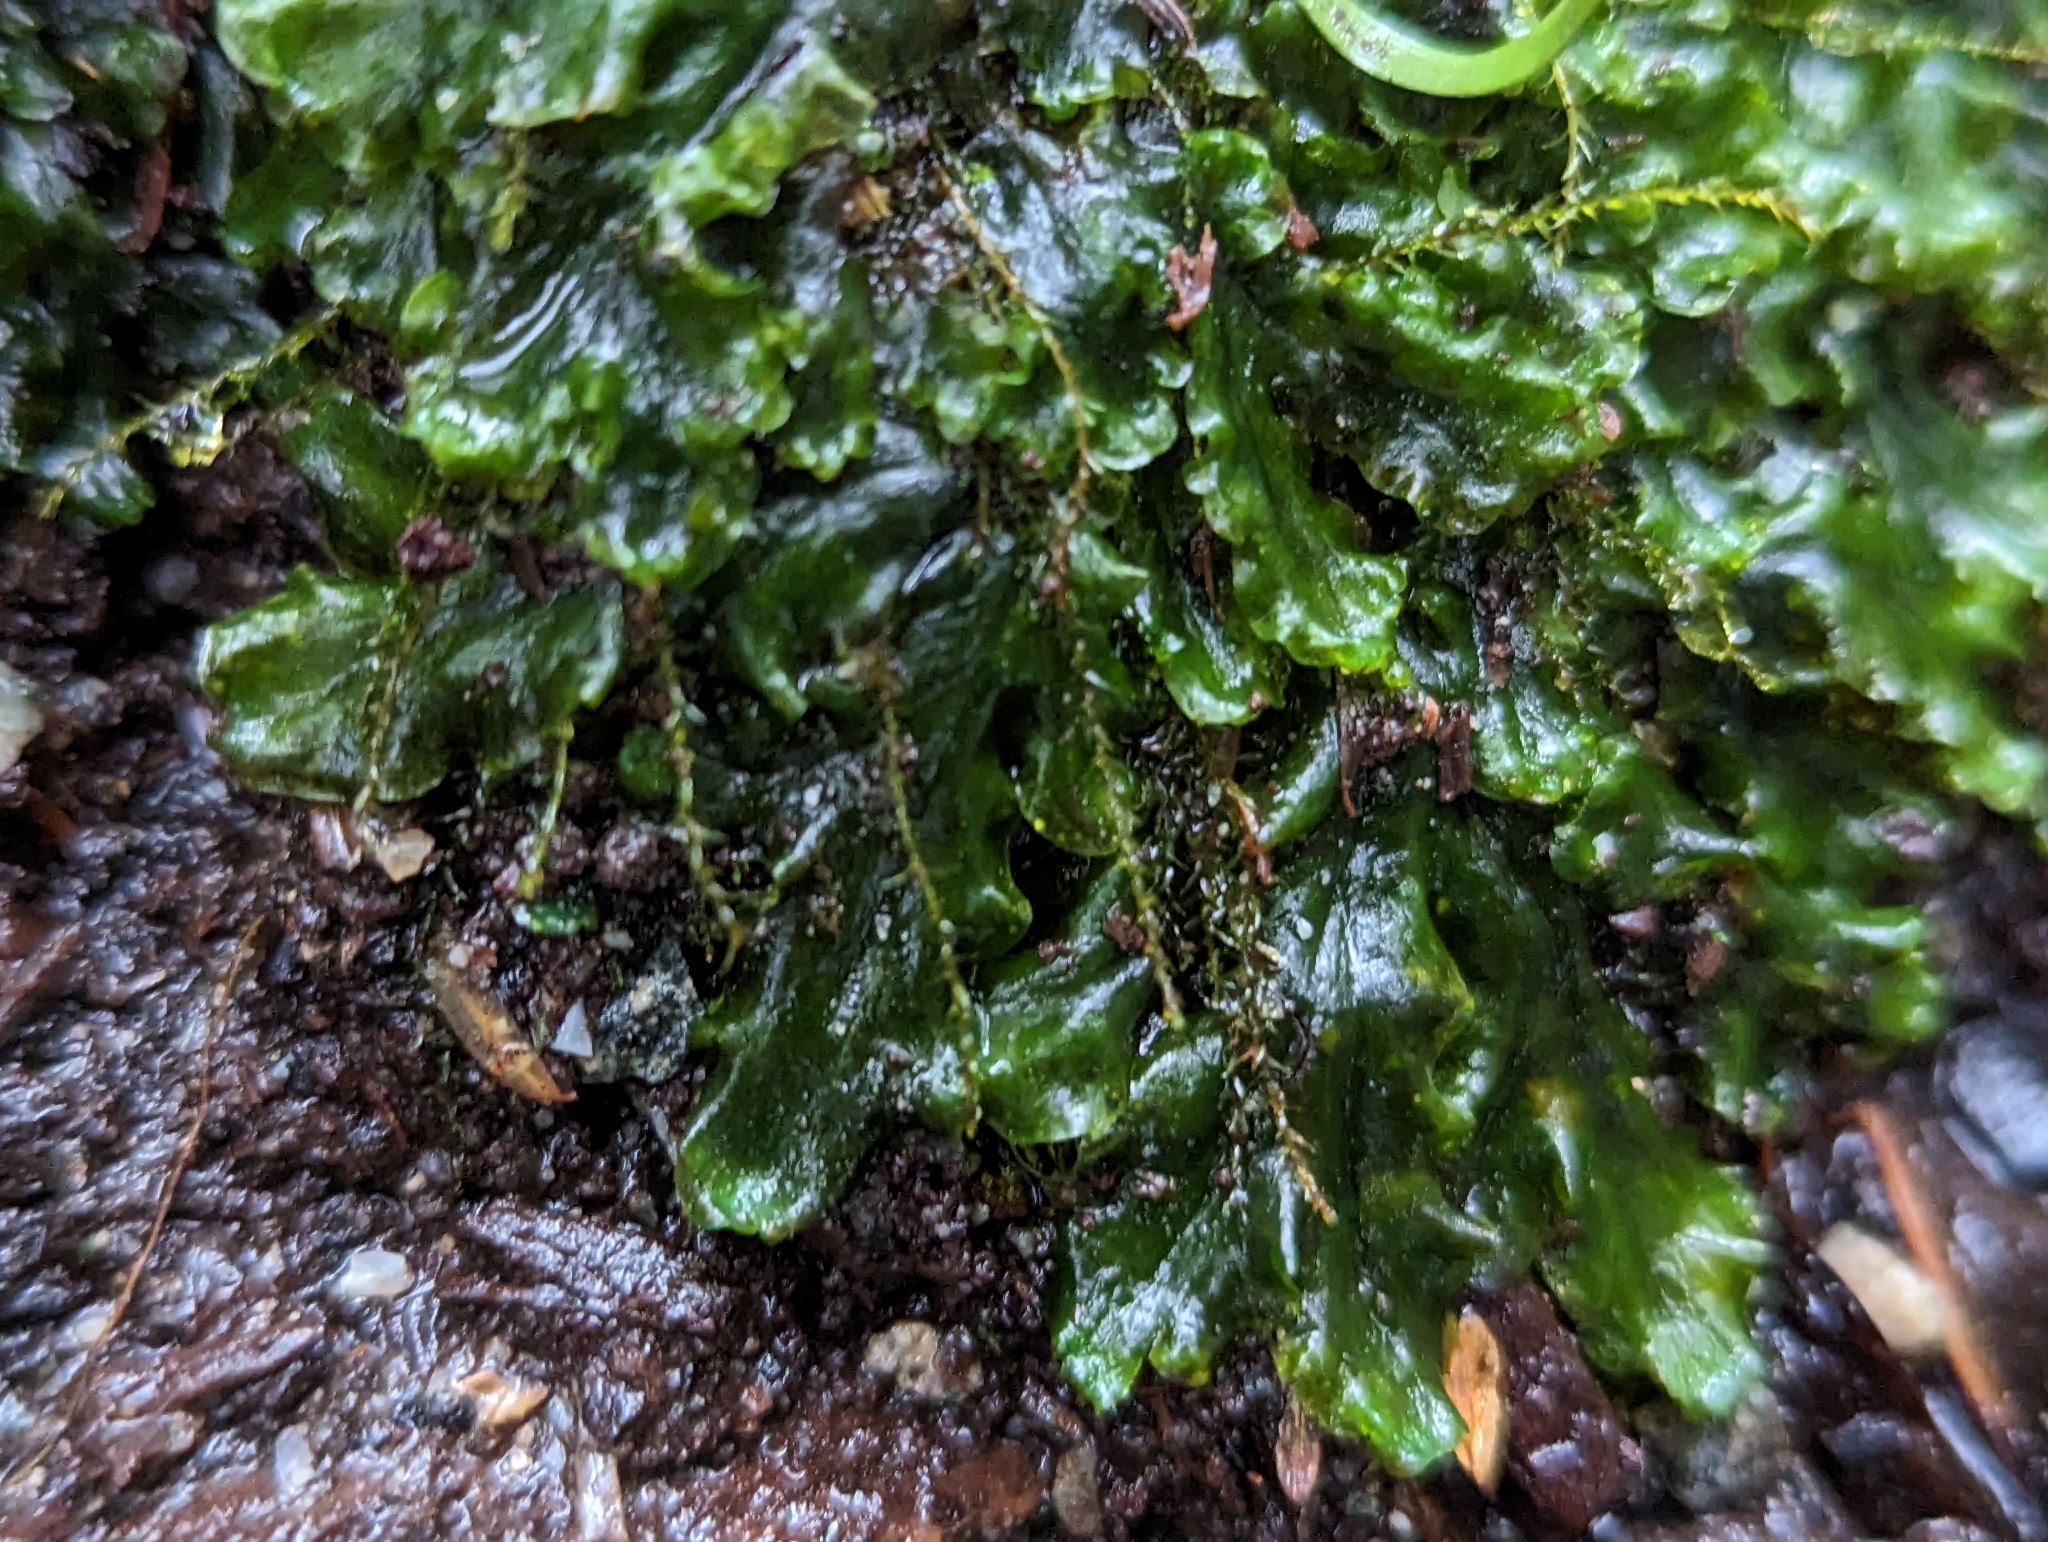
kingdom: Plantae
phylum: Marchantiophyta
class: Jungermanniopsida
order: Pelliales
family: Pelliaceae
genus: Pellia
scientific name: Pellia neesiana
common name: Nees  pellia
